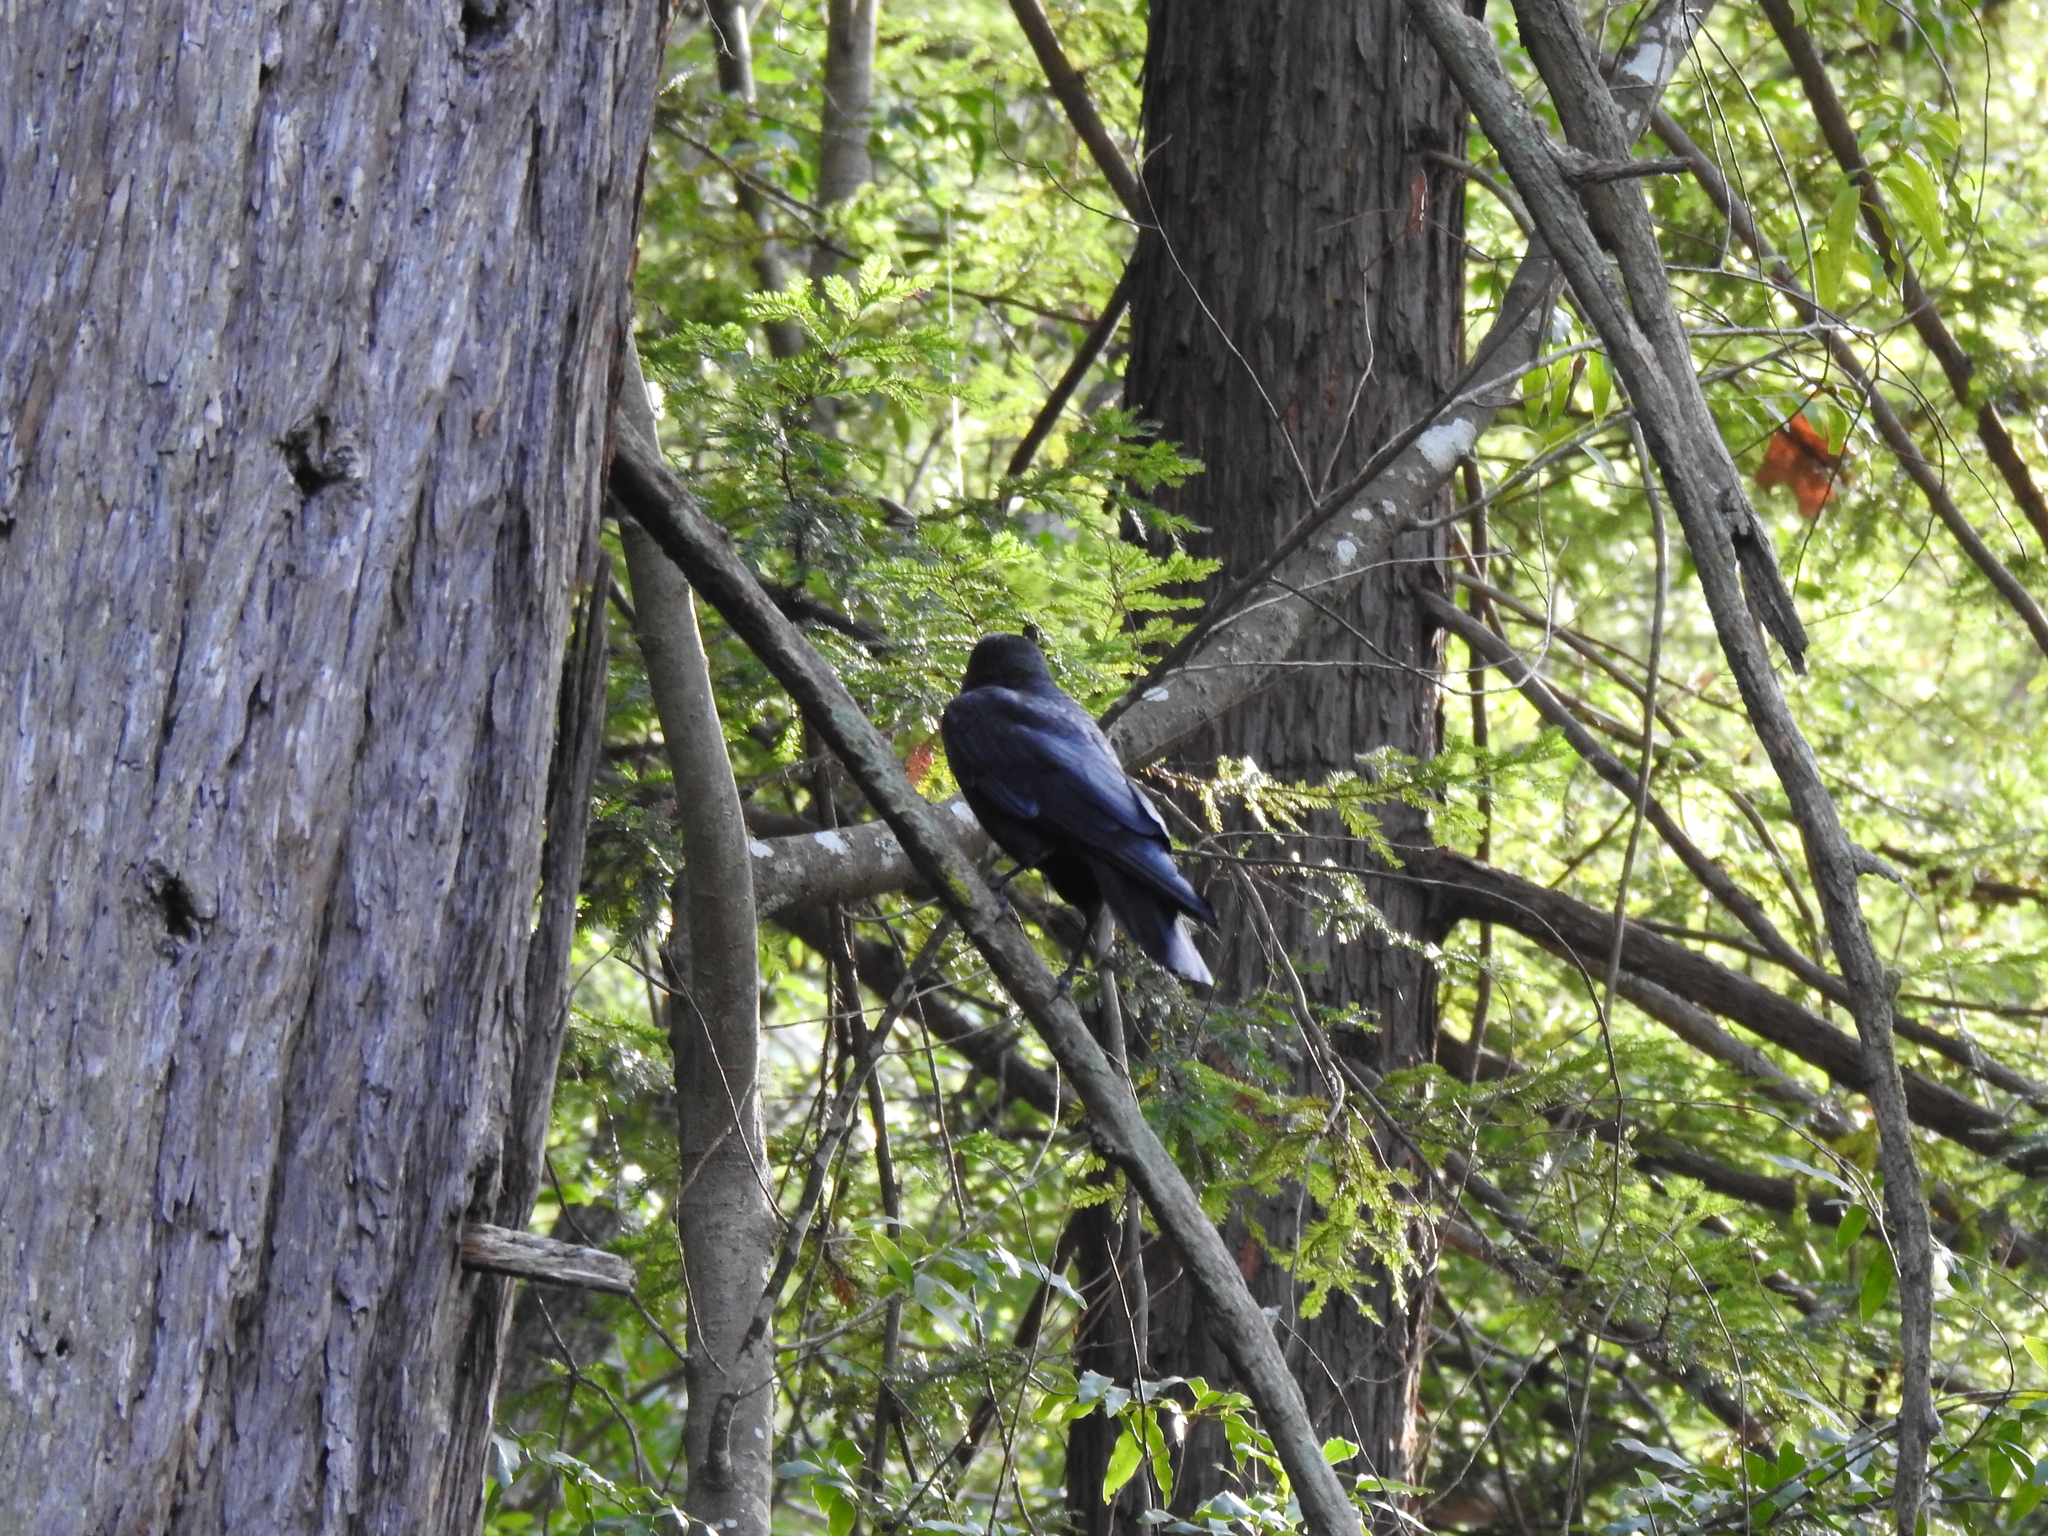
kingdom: Animalia
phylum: Chordata
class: Aves
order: Passeriformes
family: Corvidae
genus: Corvus
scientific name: Corvus brachyrhynchos
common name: American crow
